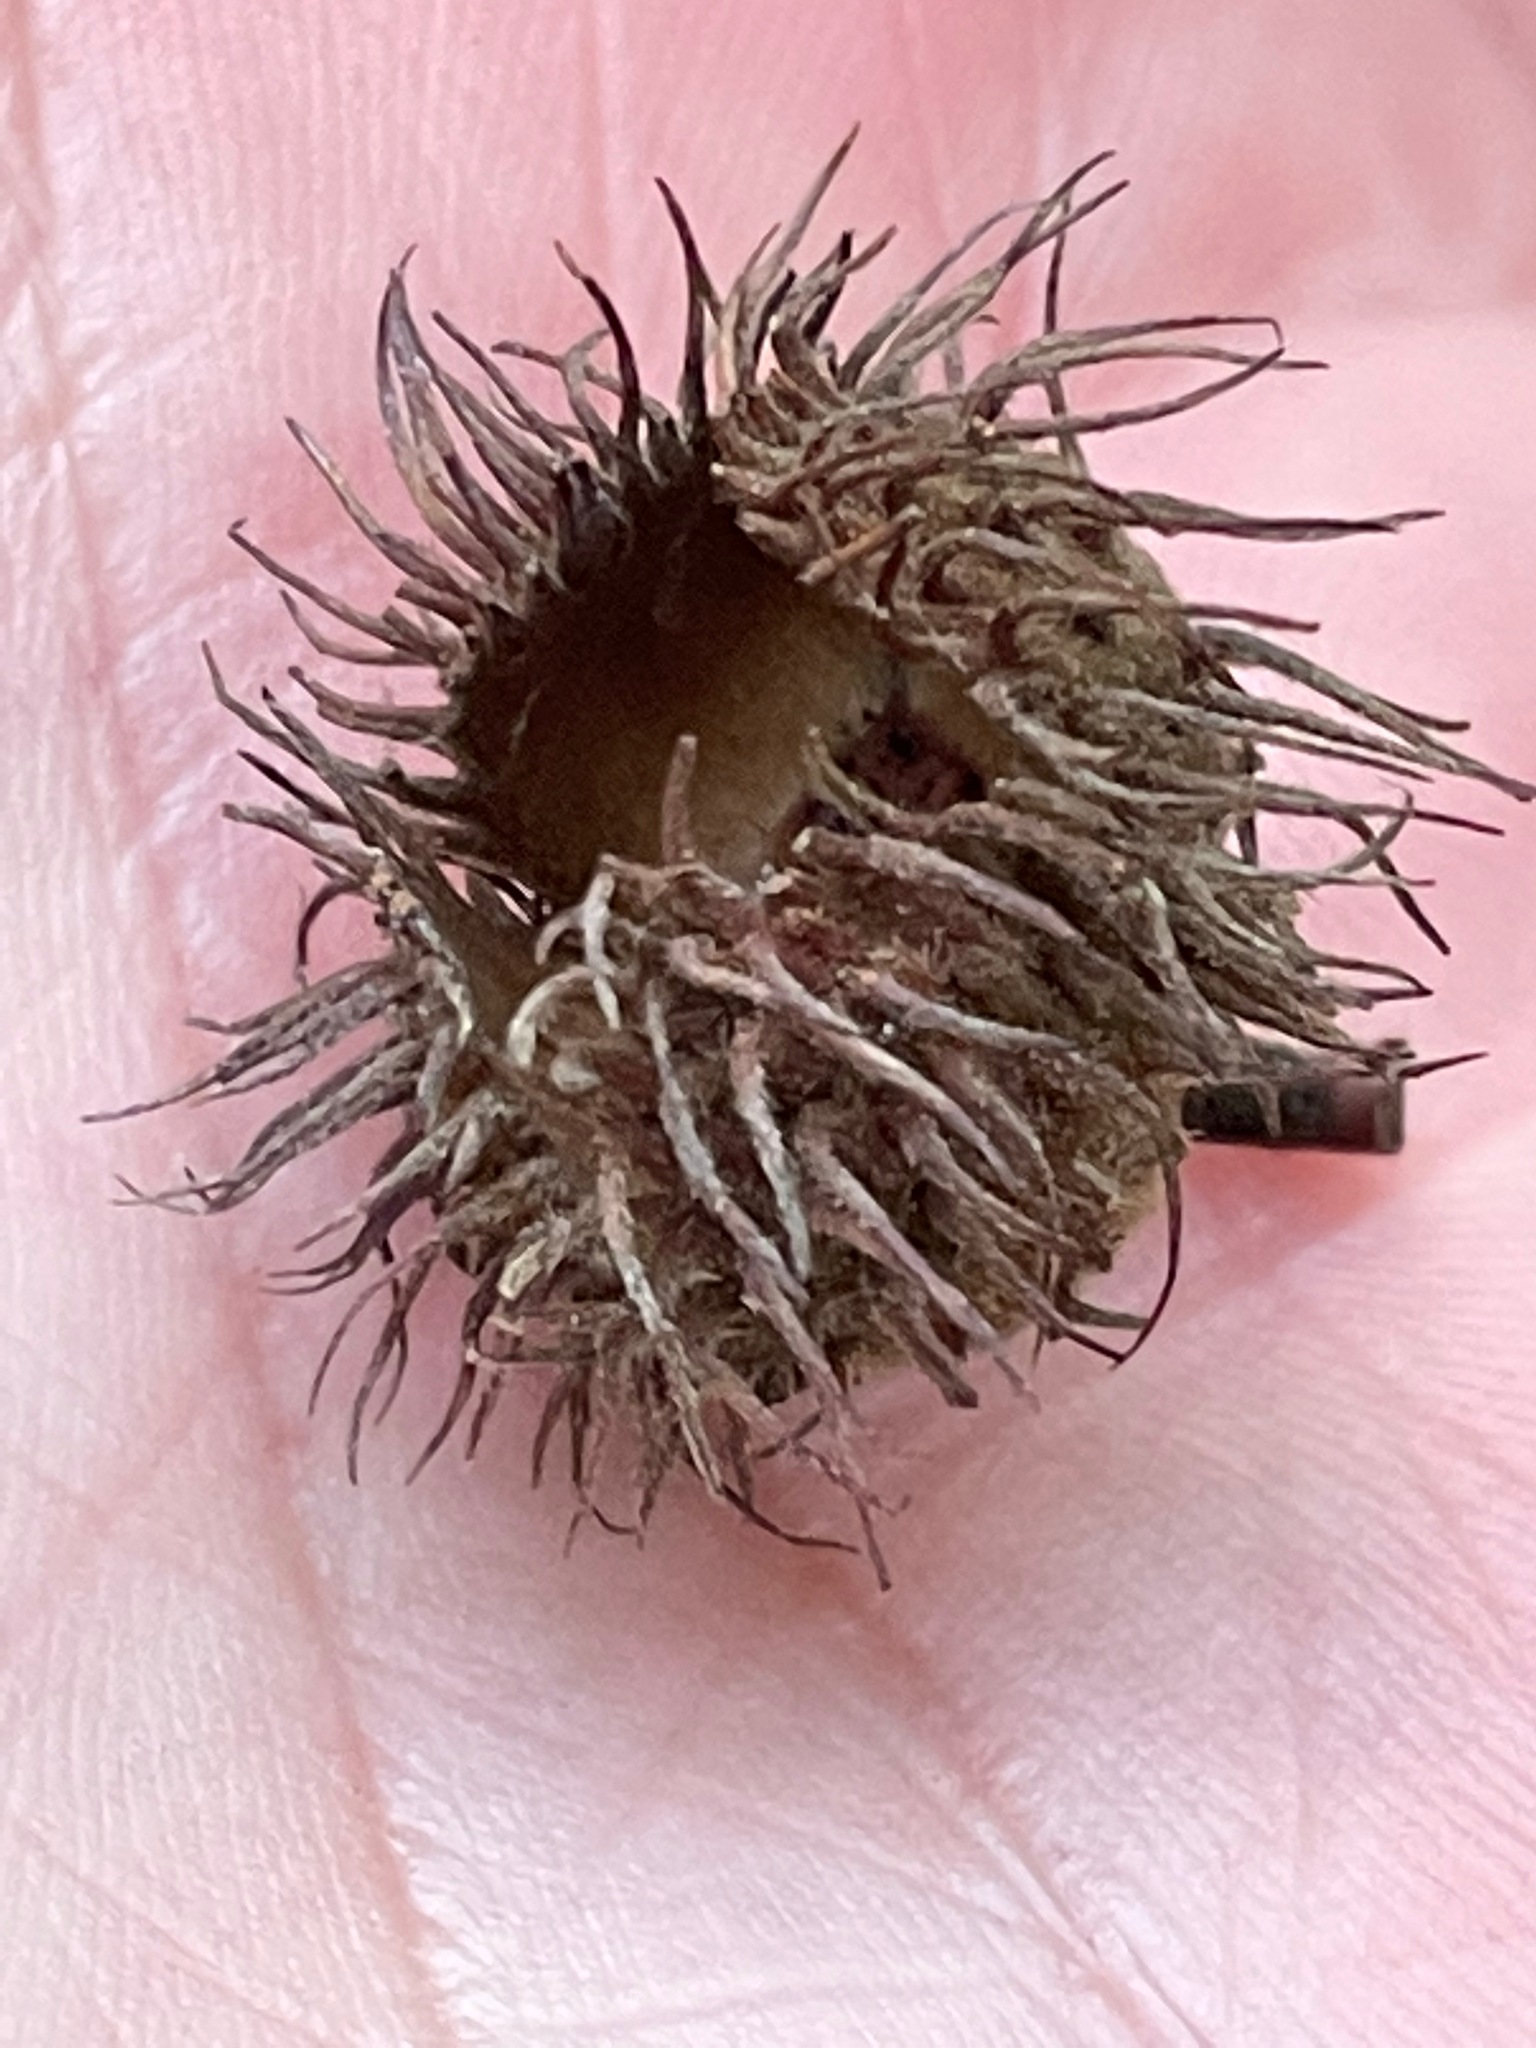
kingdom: Plantae
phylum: Tracheophyta
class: Magnoliopsida
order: Fagales
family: Fagaceae
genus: Fagus
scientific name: Fagus grandifolia
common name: American beech
